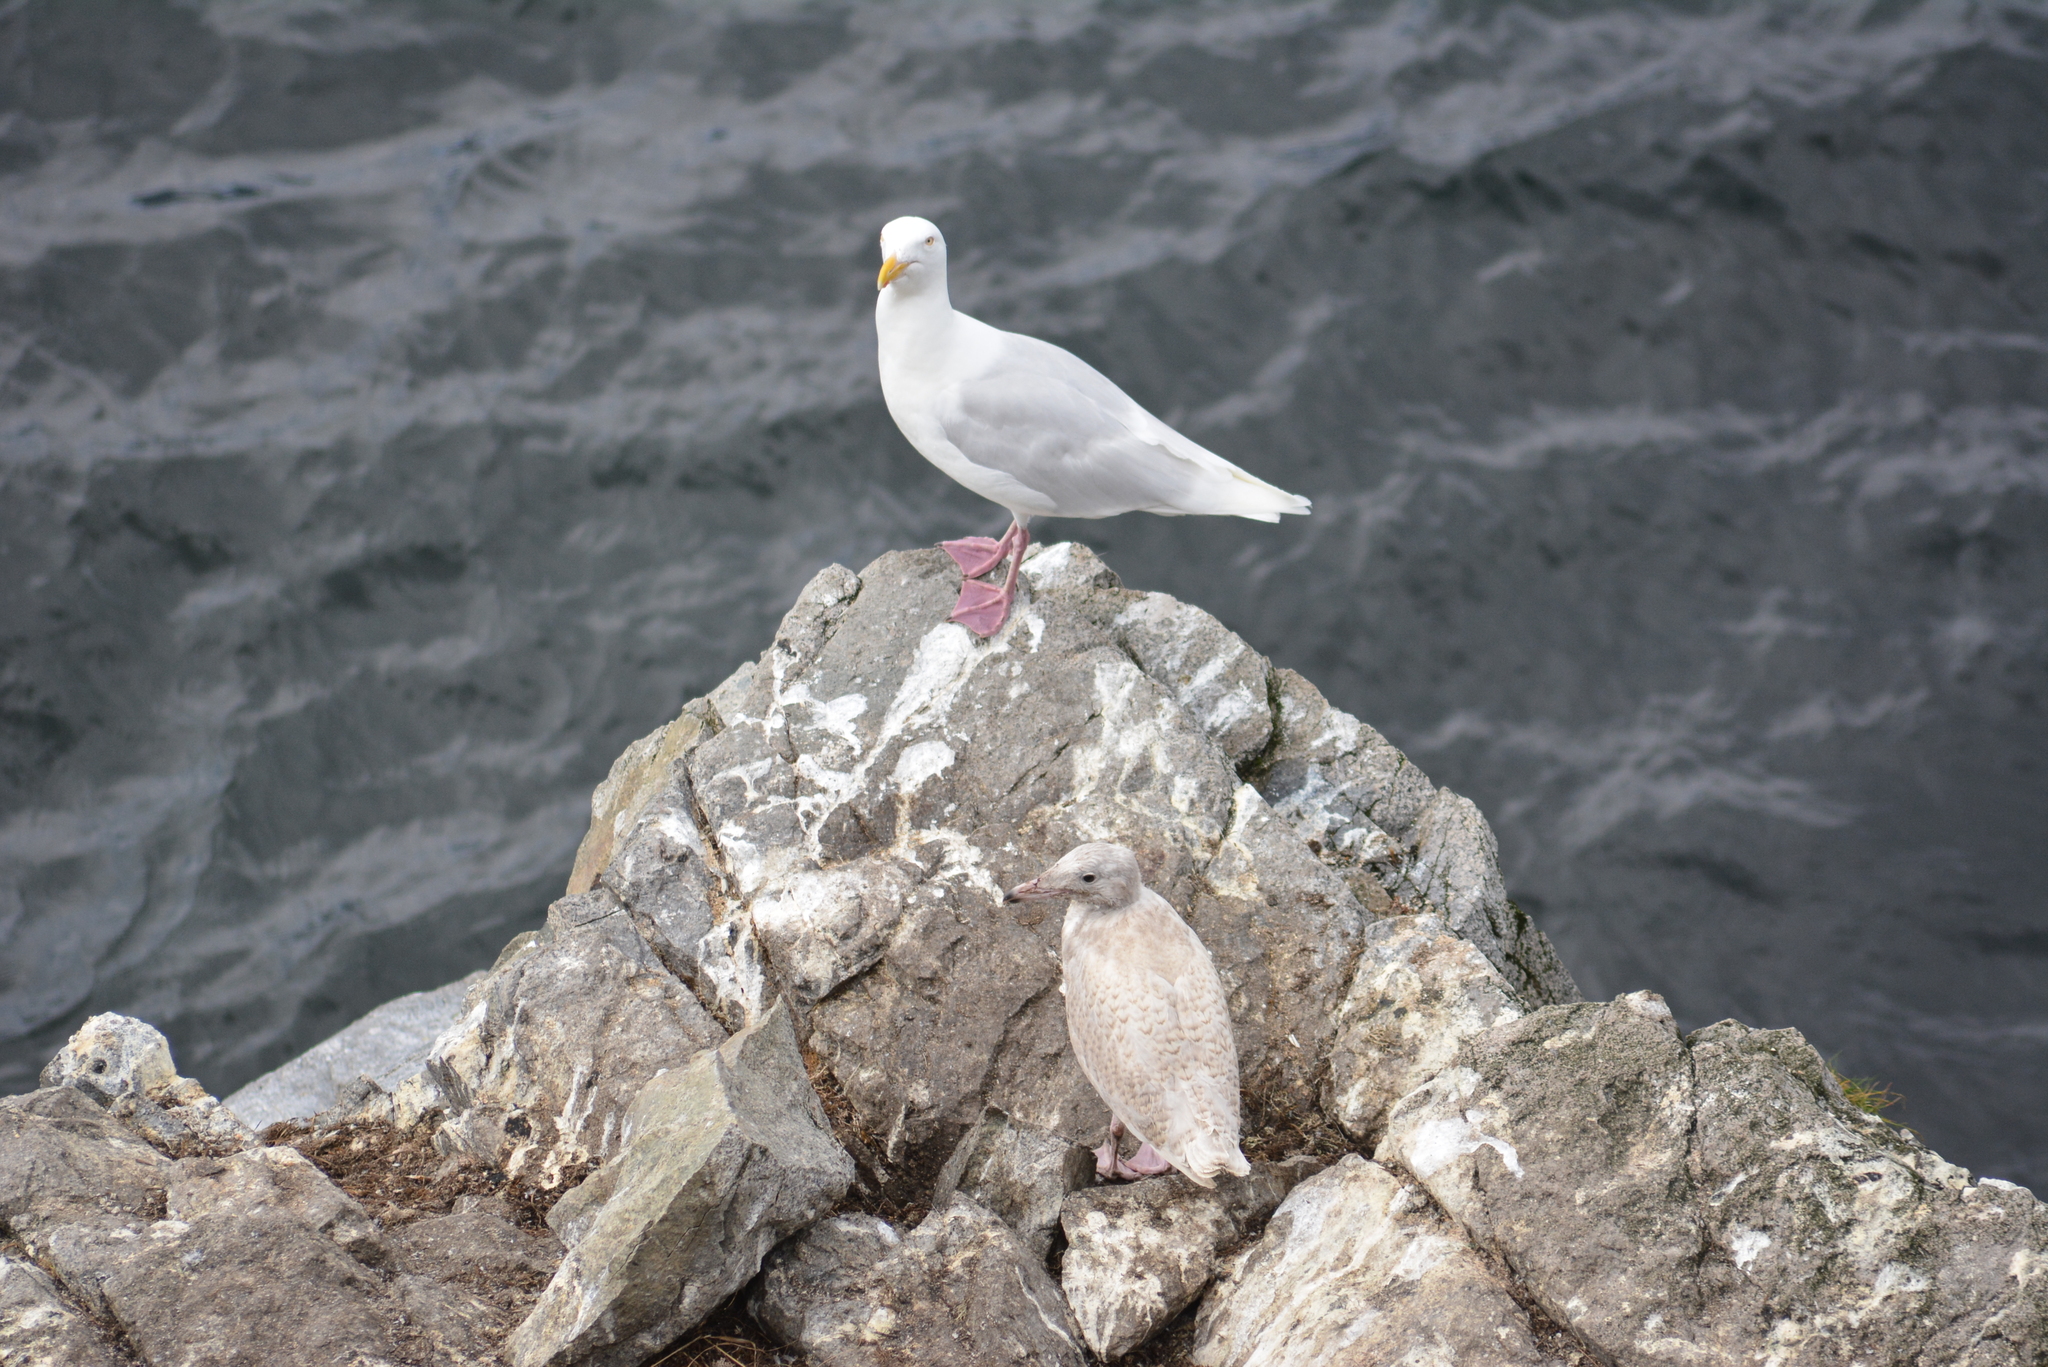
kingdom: Animalia
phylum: Chordata
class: Aves
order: Charadriiformes
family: Laridae
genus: Larus
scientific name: Larus hyperboreus
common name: Glaucous gull
